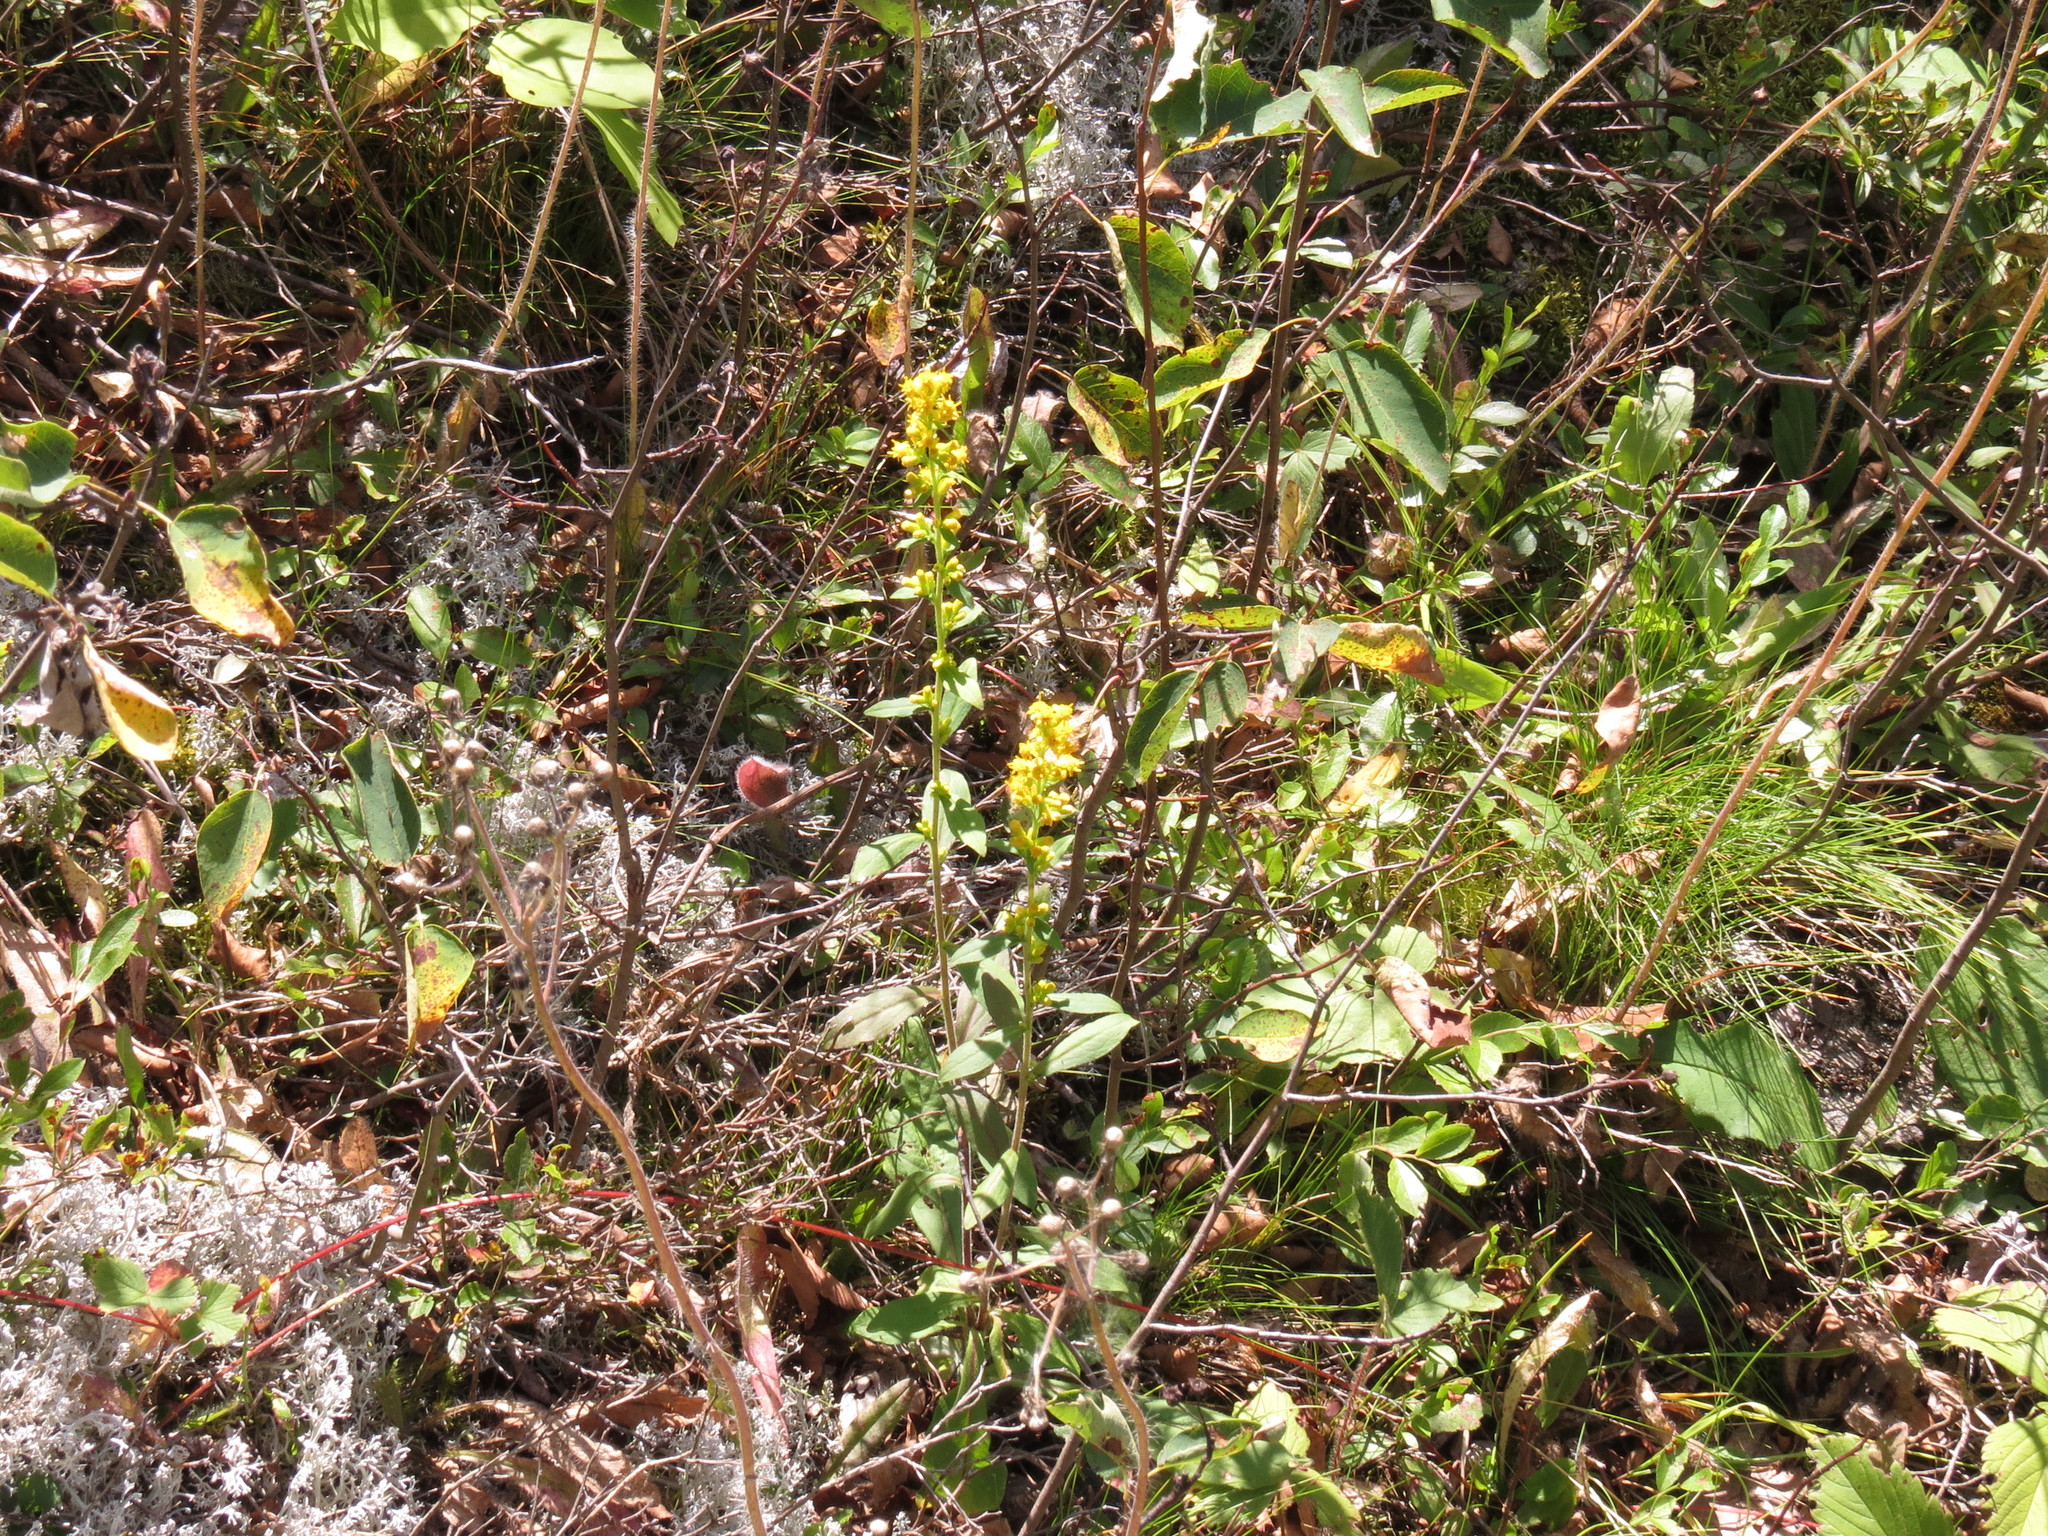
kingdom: Plantae
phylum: Tracheophyta
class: Magnoliopsida
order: Asterales
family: Asteraceae
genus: Solidago
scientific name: Solidago hispida
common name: Hairy goldenrod
